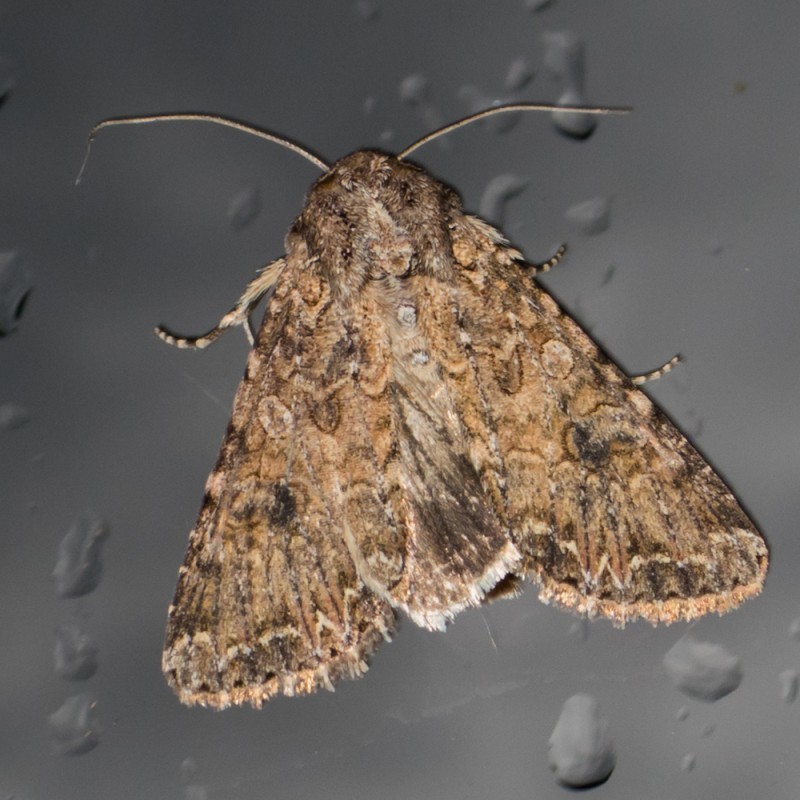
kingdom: Animalia
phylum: Arthropoda
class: Insecta
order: Lepidoptera
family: Noctuidae
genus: Anarta
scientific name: Anarta trifolii
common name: Clover cutworm moth
